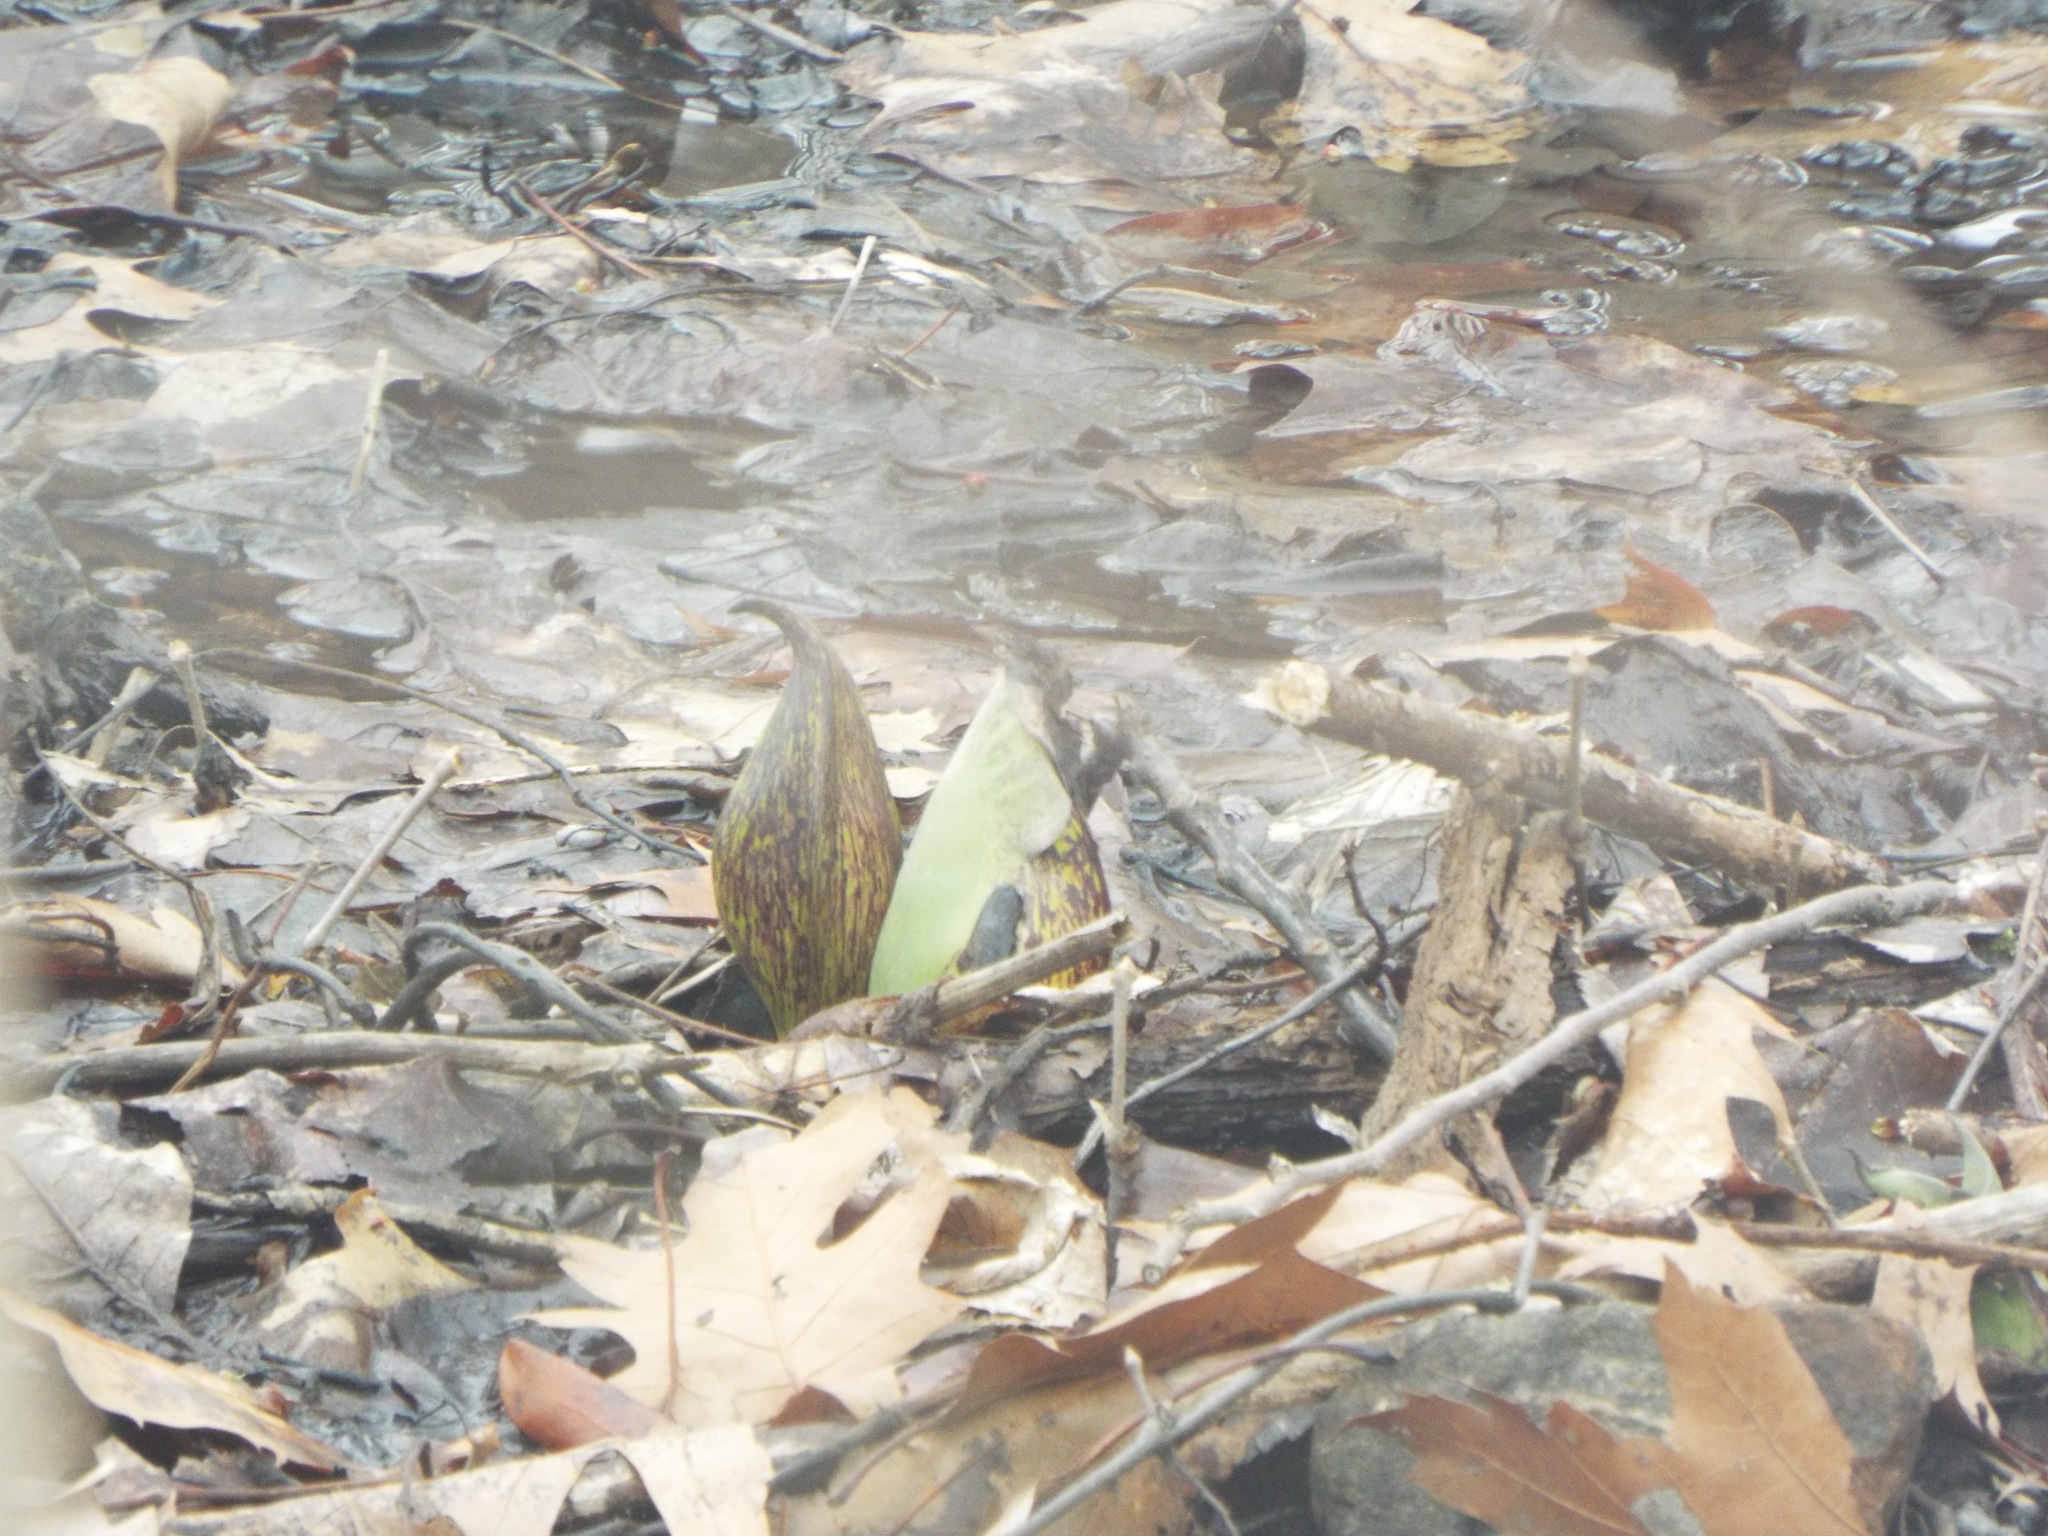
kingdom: Plantae
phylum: Tracheophyta
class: Liliopsida
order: Alismatales
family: Araceae
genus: Symplocarpus
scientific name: Symplocarpus foetidus
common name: Eastern skunk cabbage
